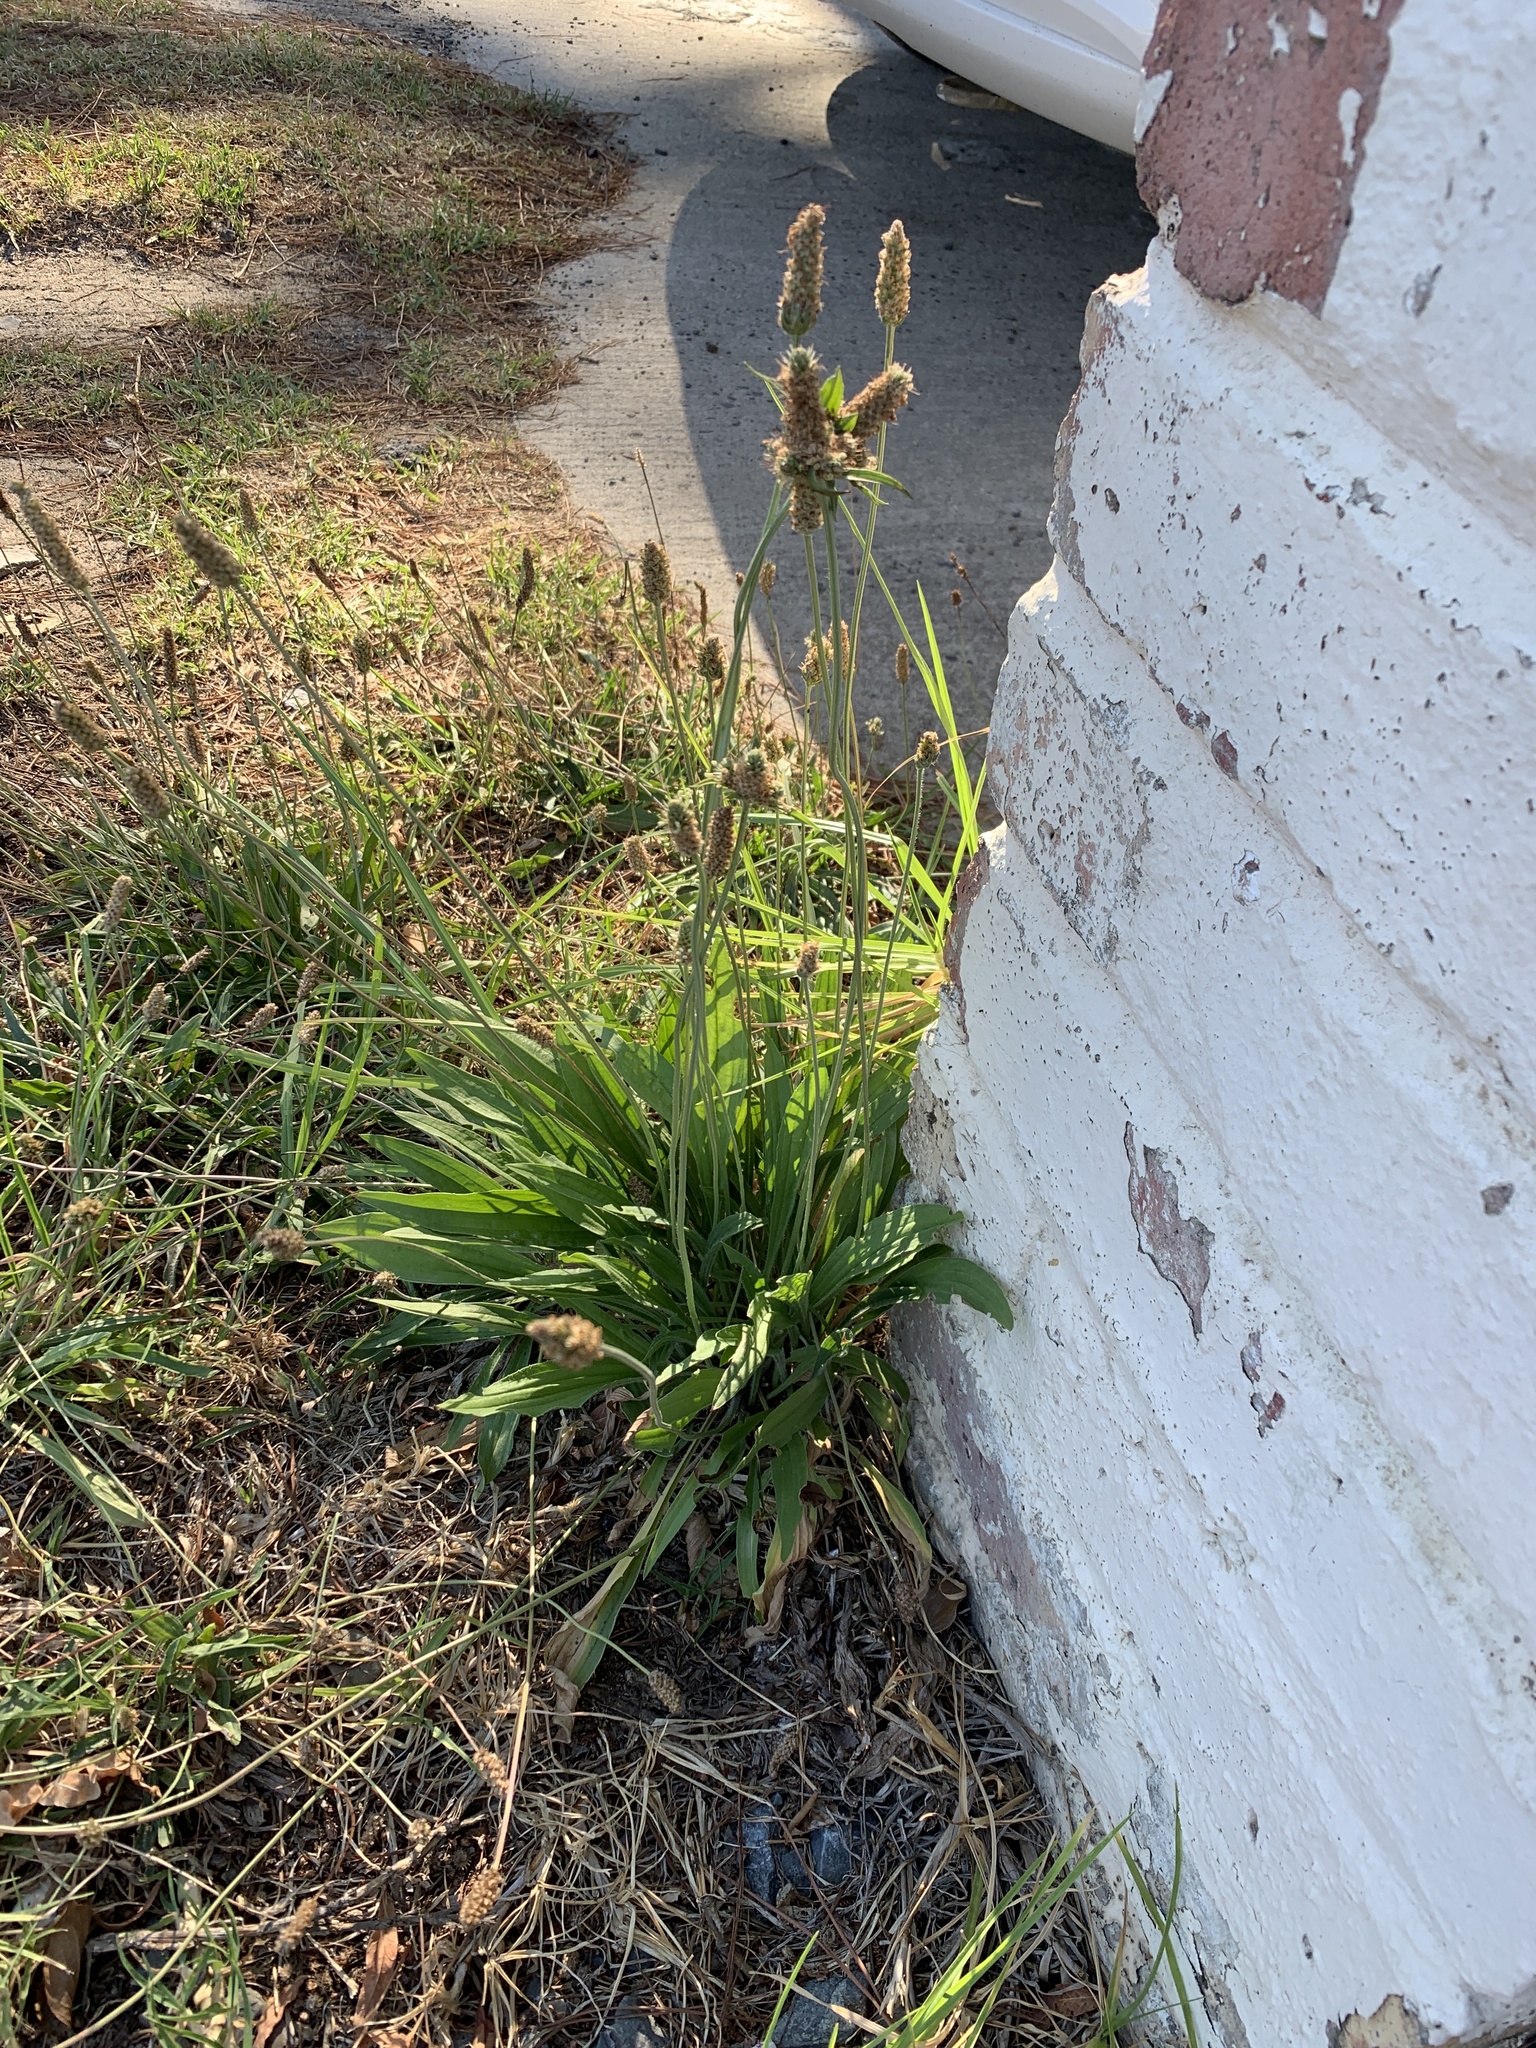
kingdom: Plantae
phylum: Tracheophyta
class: Magnoliopsida
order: Lamiales
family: Plantaginaceae
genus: Plantago
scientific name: Plantago lanceolata
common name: Ribwort plantain
